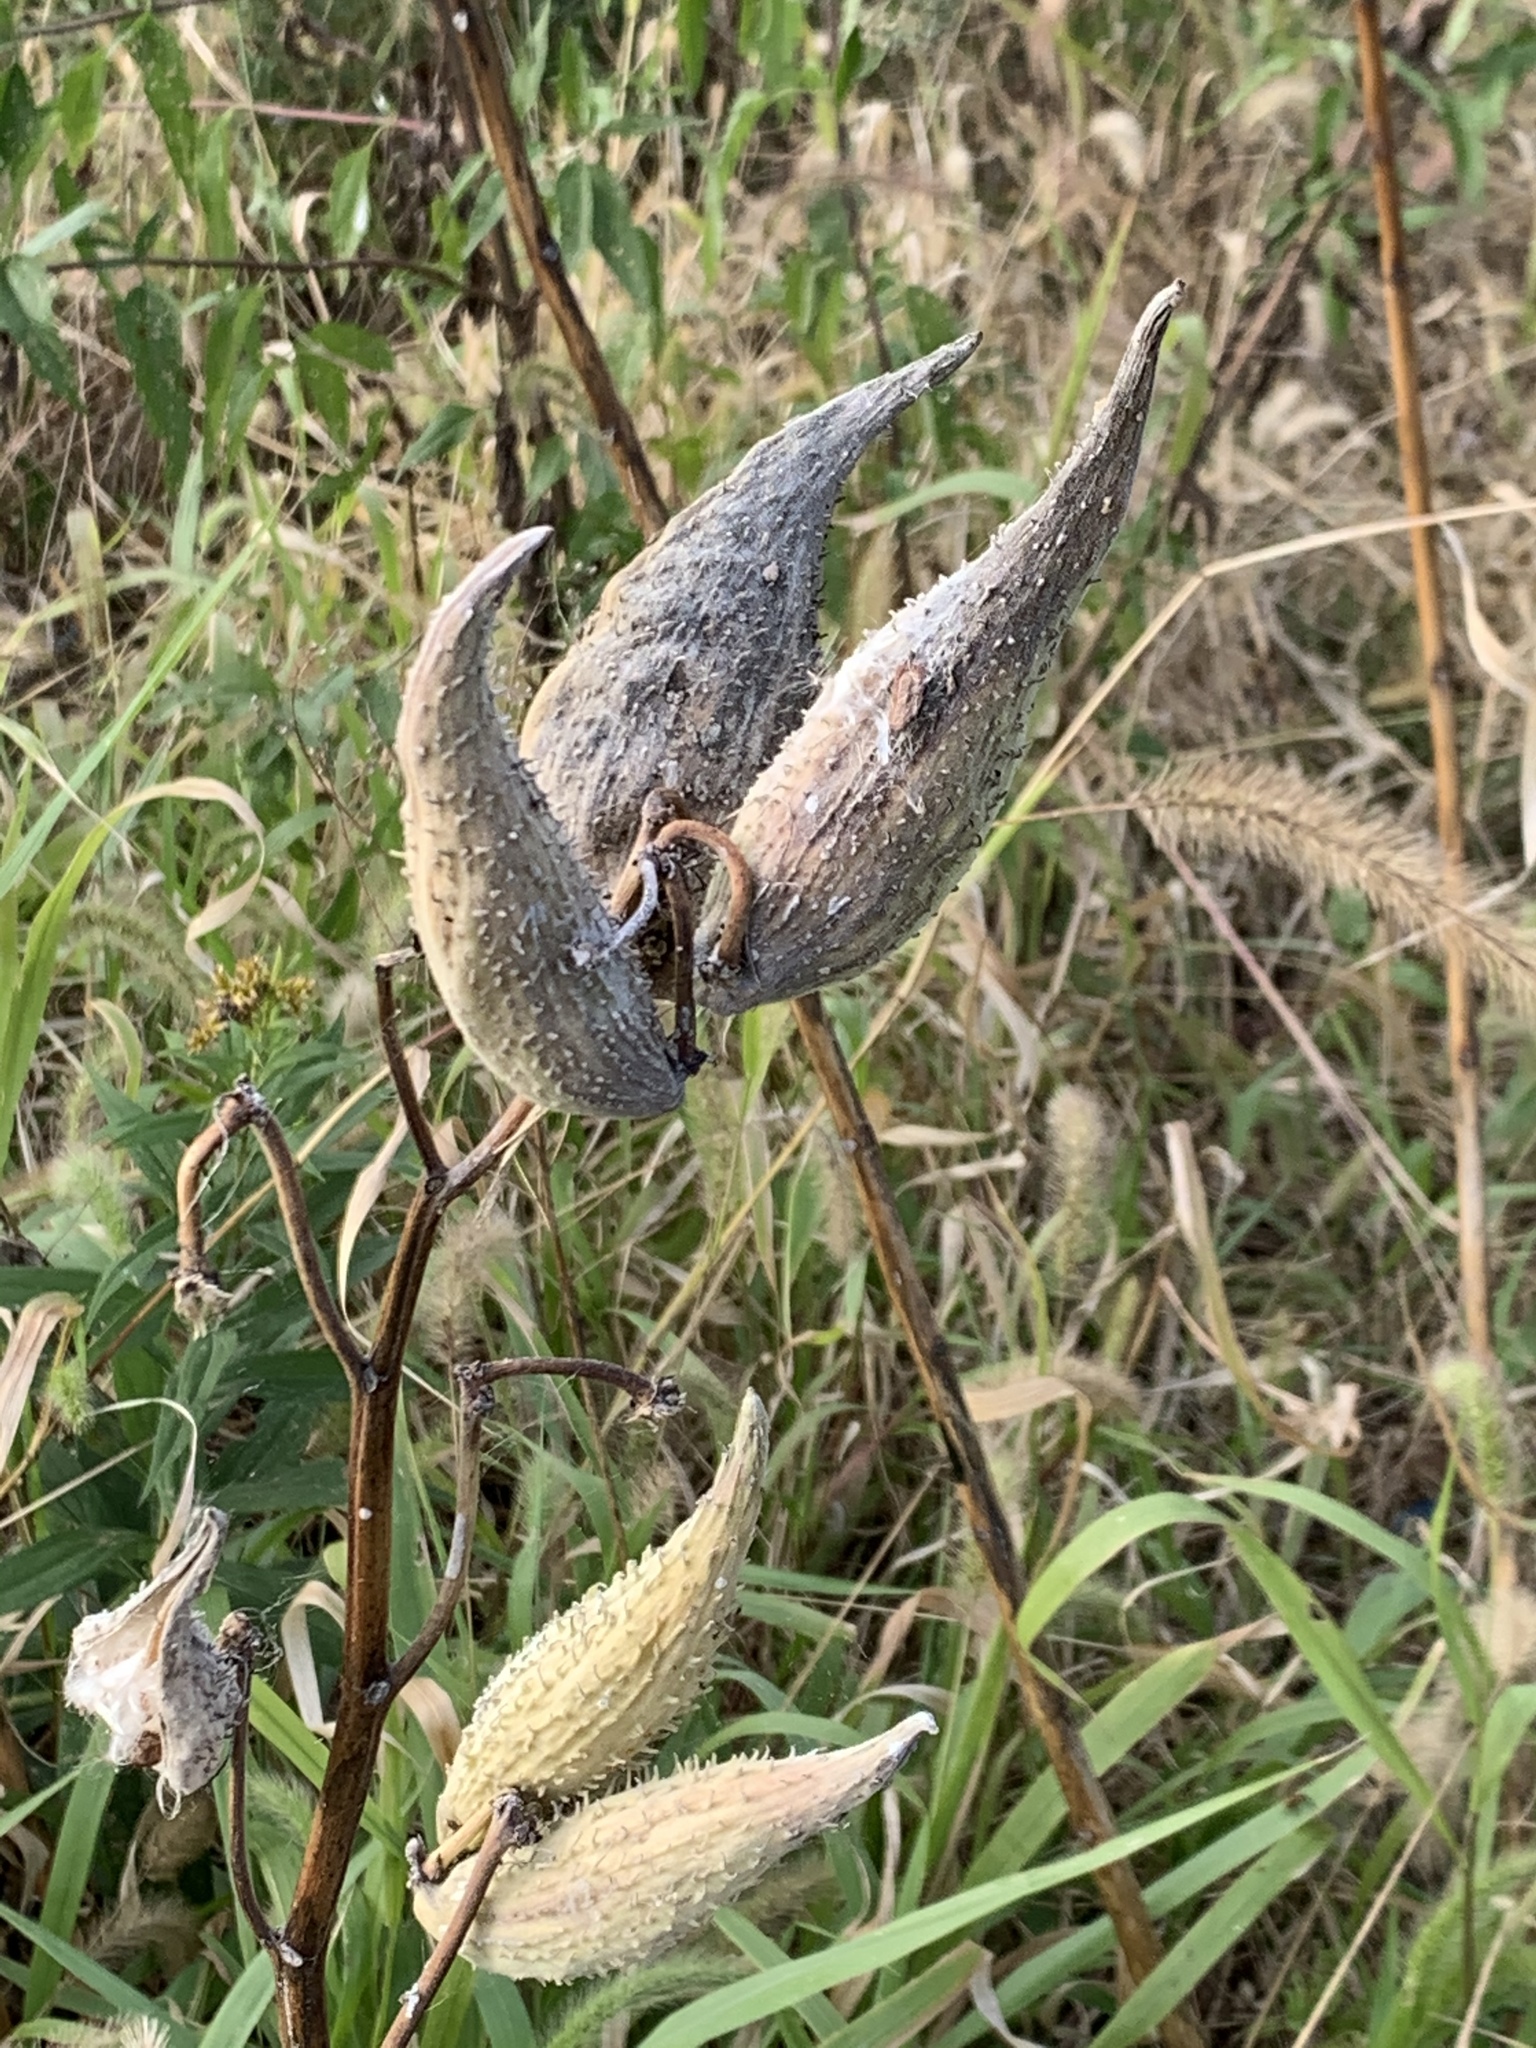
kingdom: Plantae
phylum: Tracheophyta
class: Magnoliopsida
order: Gentianales
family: Apocynaceae
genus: Asclepias
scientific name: Asclepias syriaca
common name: Common milkweed
